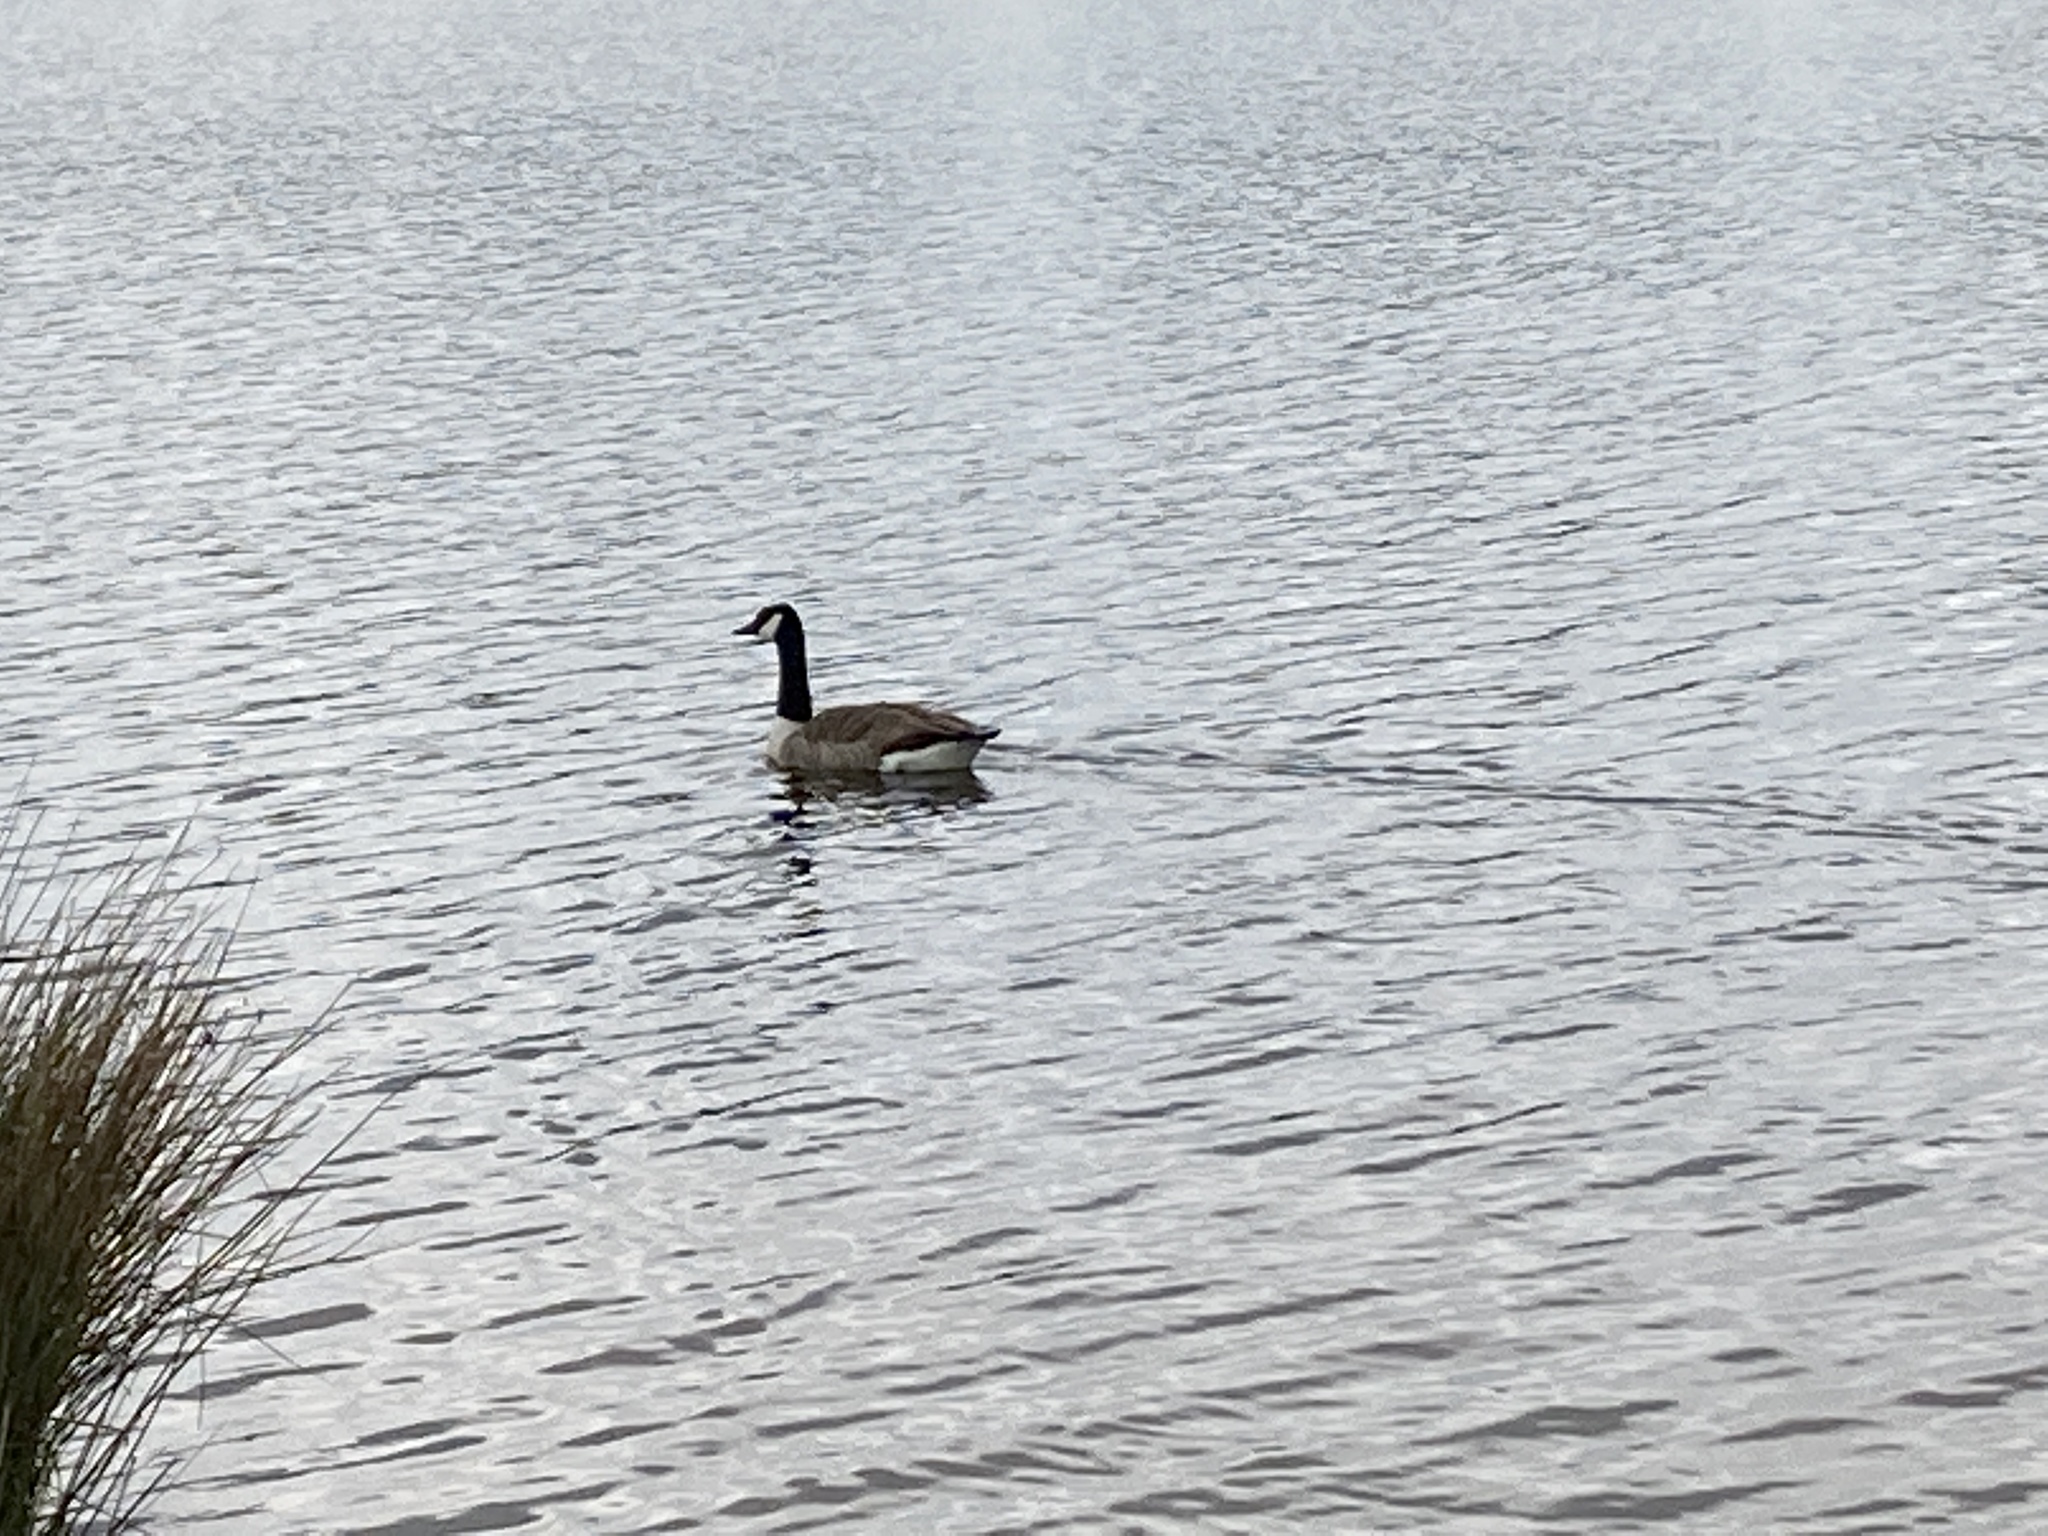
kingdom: Animalia
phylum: Chordata
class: Aves
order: Anseriformes
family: Anatidae
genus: Branta
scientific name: Branta canadensis
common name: Canada goose
